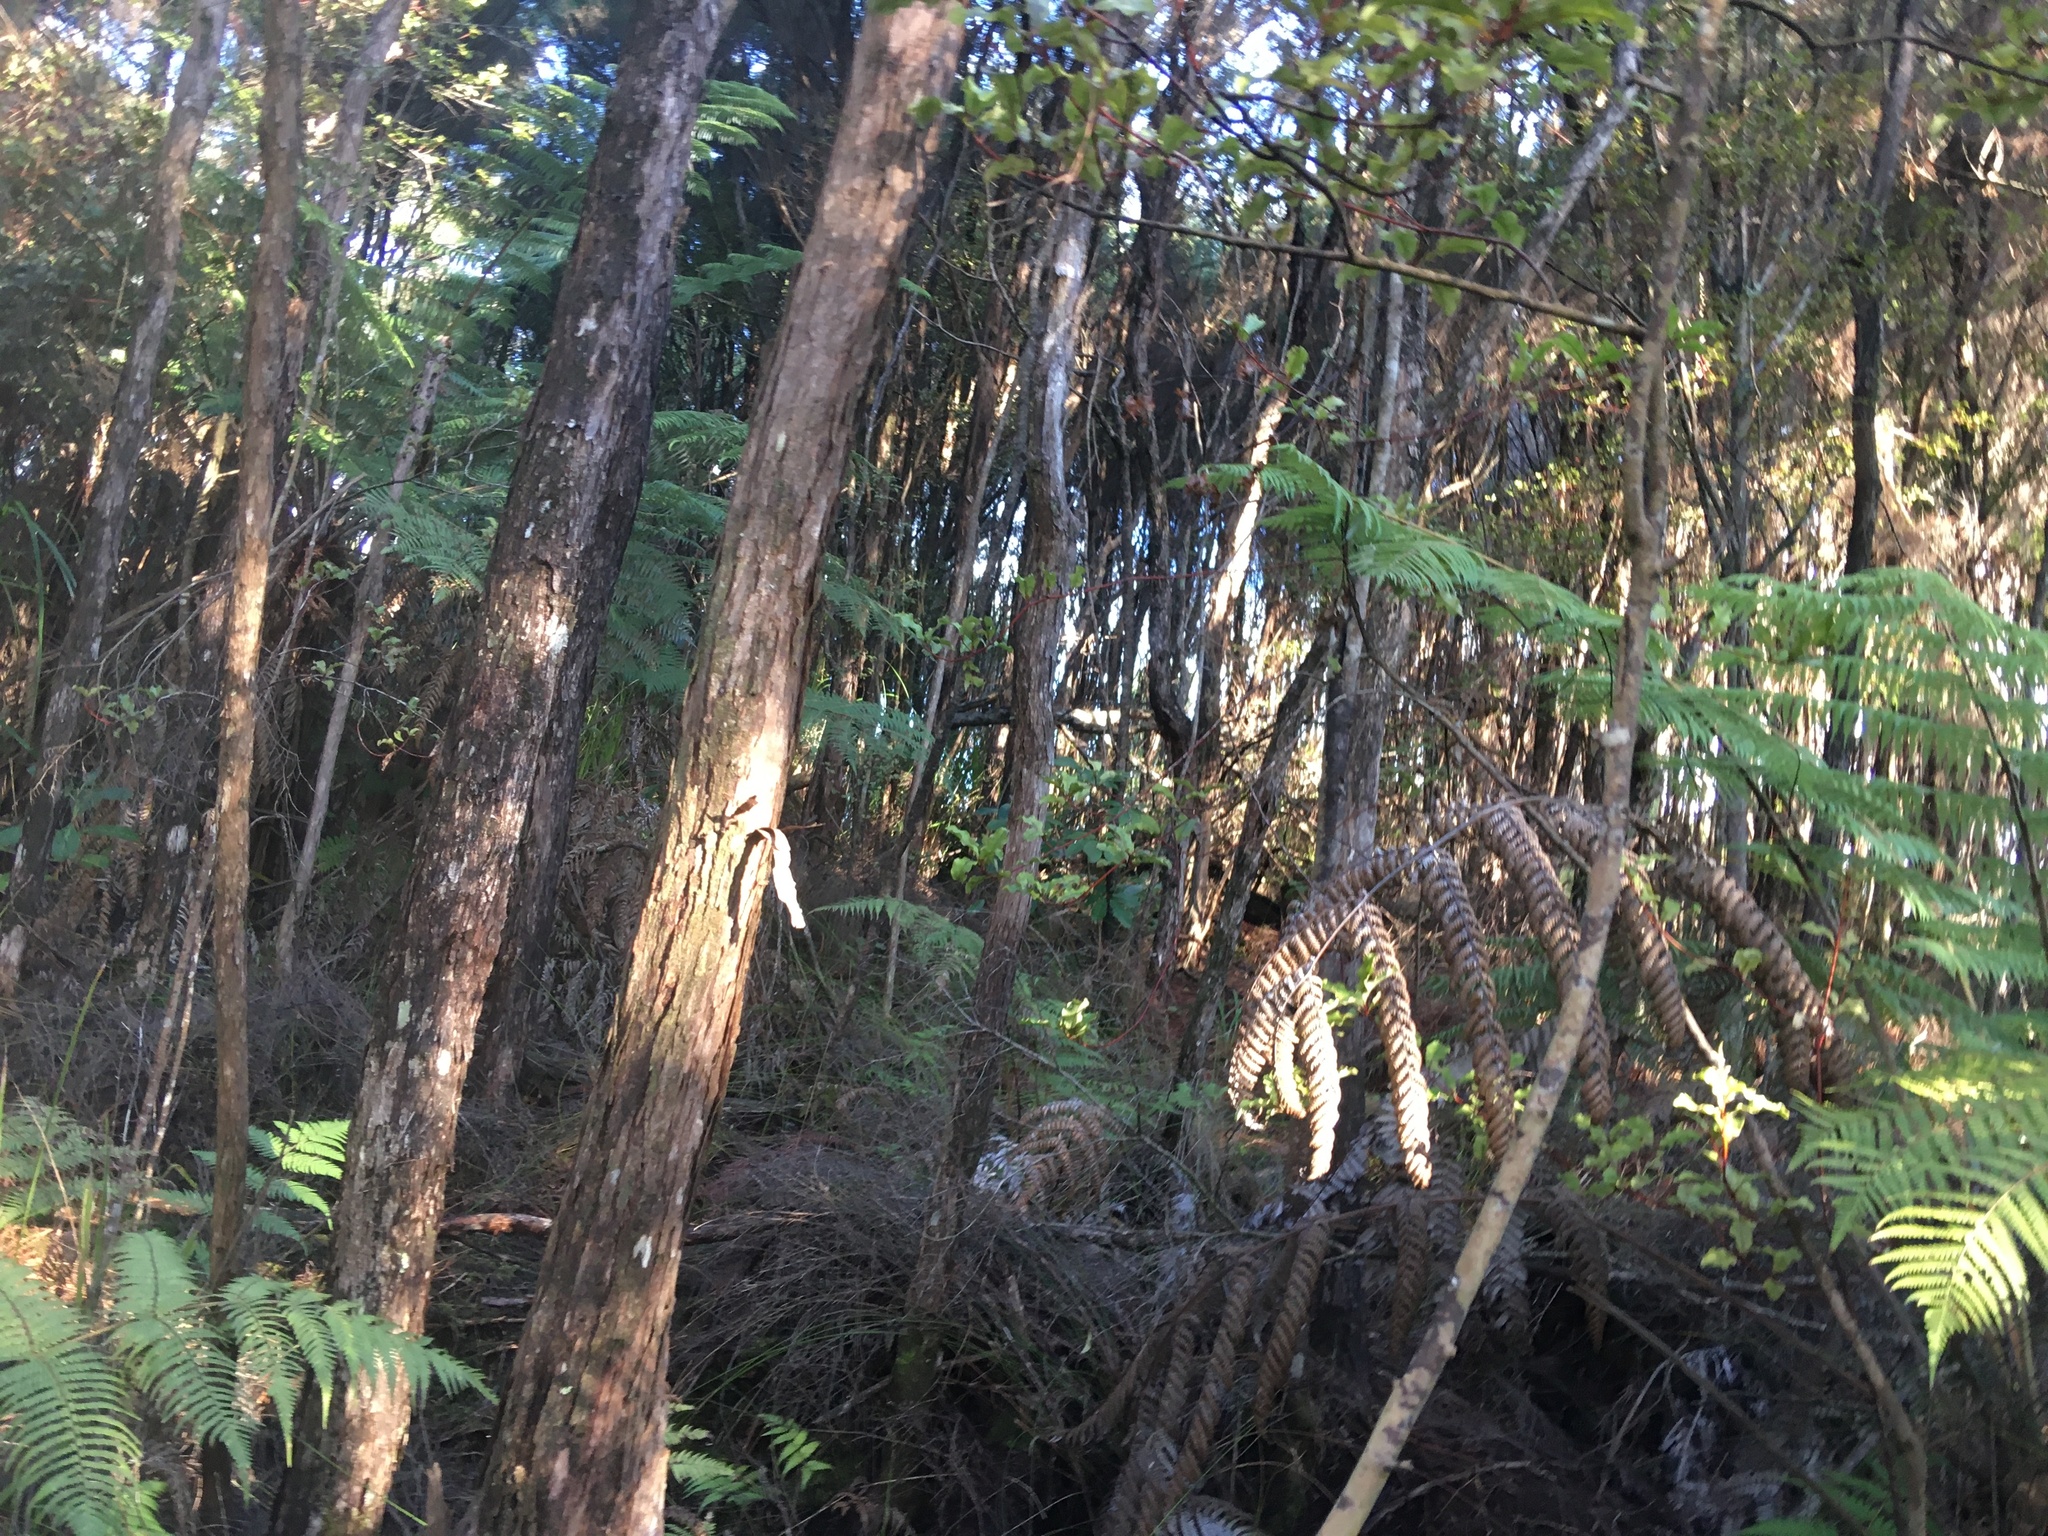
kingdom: Plantae
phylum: Tracheophyta
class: Magnoliopsida
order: Ericales
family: Primulaceae
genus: Myrsine
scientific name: Myrsine australis
